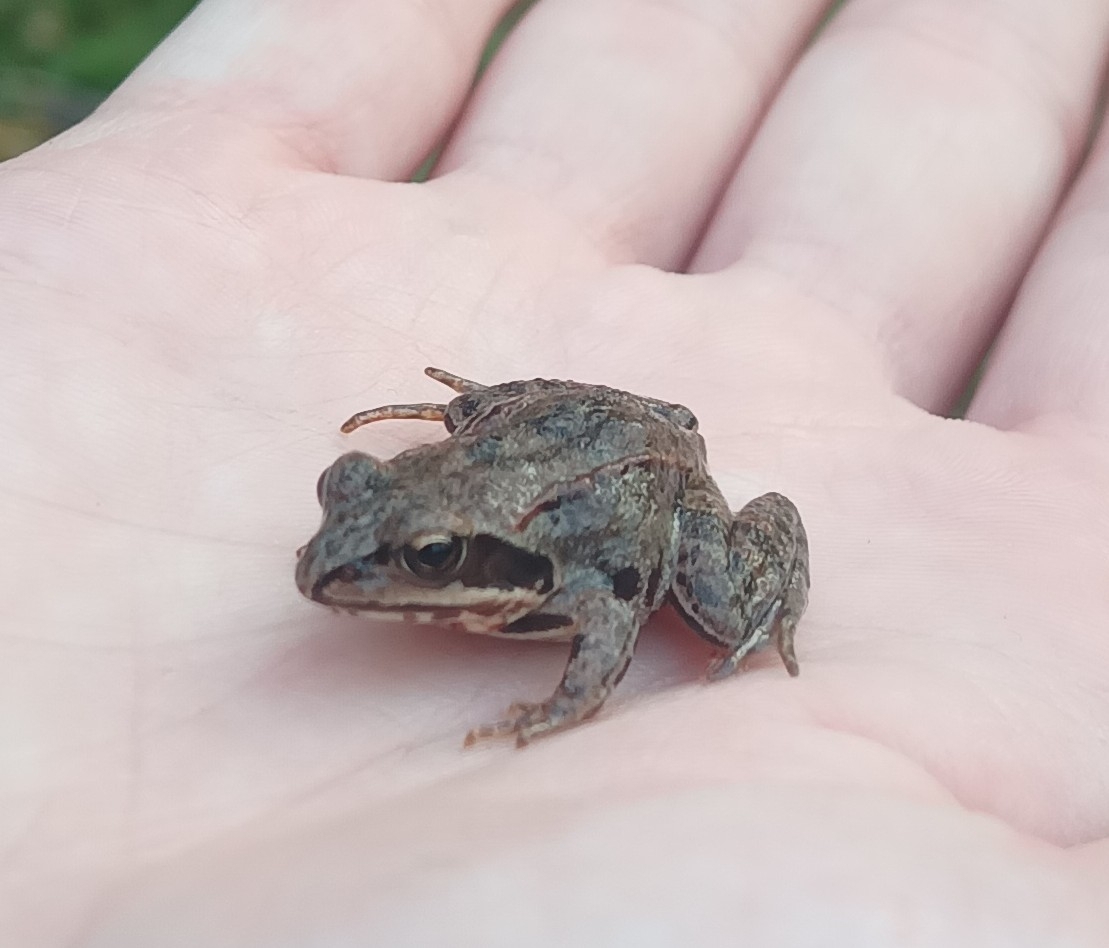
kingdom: Animalia
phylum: Chordata
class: Amphibia
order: Anura
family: Ranidae
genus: Rana
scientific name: Rana arvalis
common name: Moor frog
